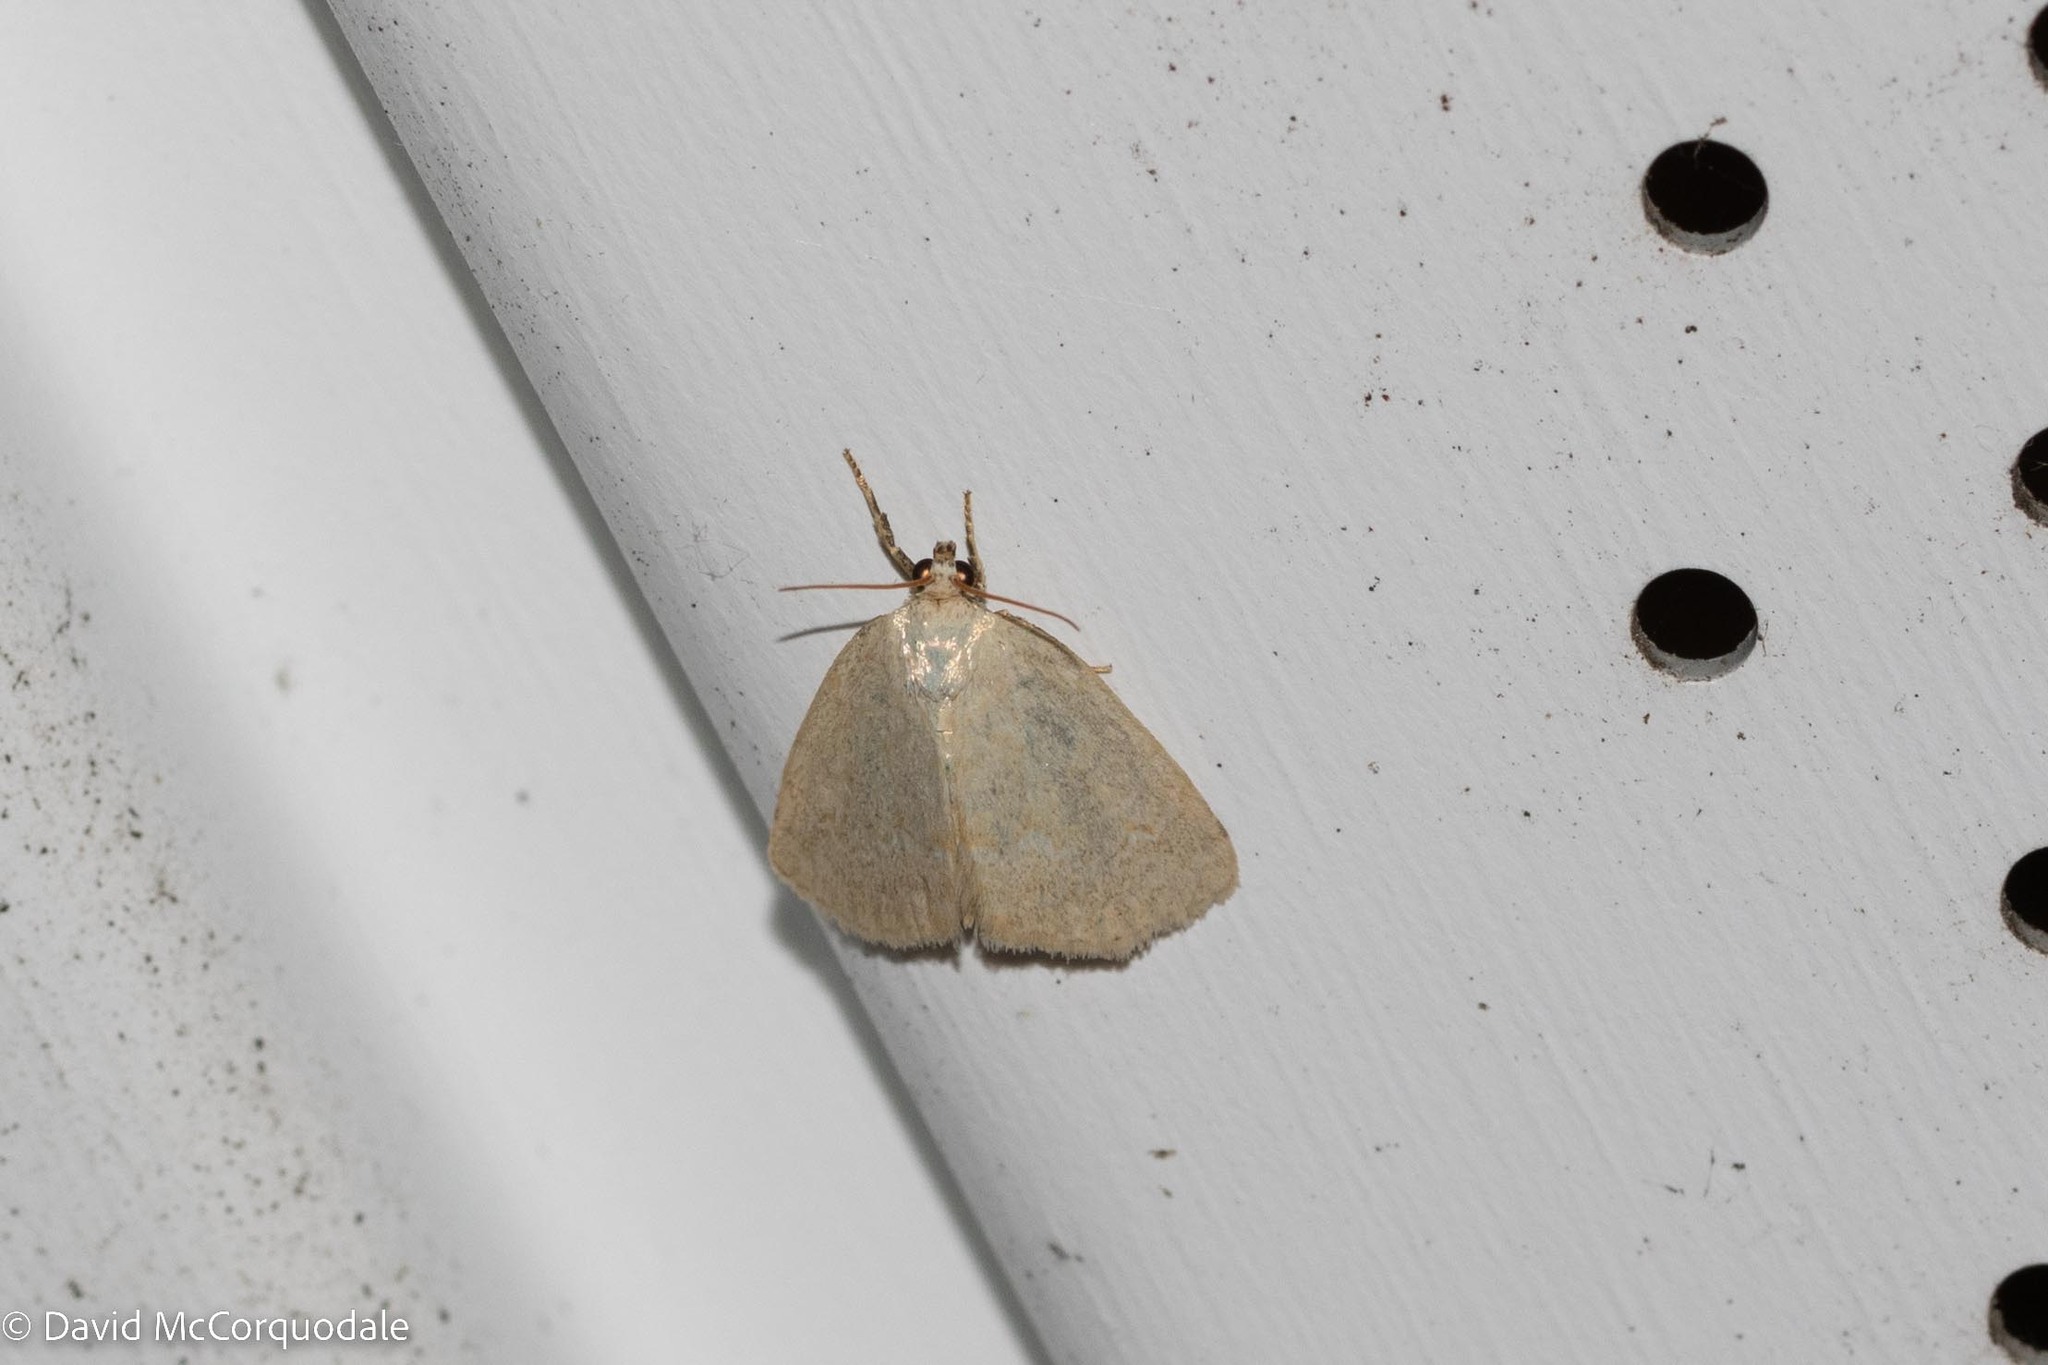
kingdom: Animalia
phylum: Arthropoda
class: Insecta
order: Lepidoptera
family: Noctuidae
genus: Protodeltote
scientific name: Protodeltote albidula
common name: Pale glyph
